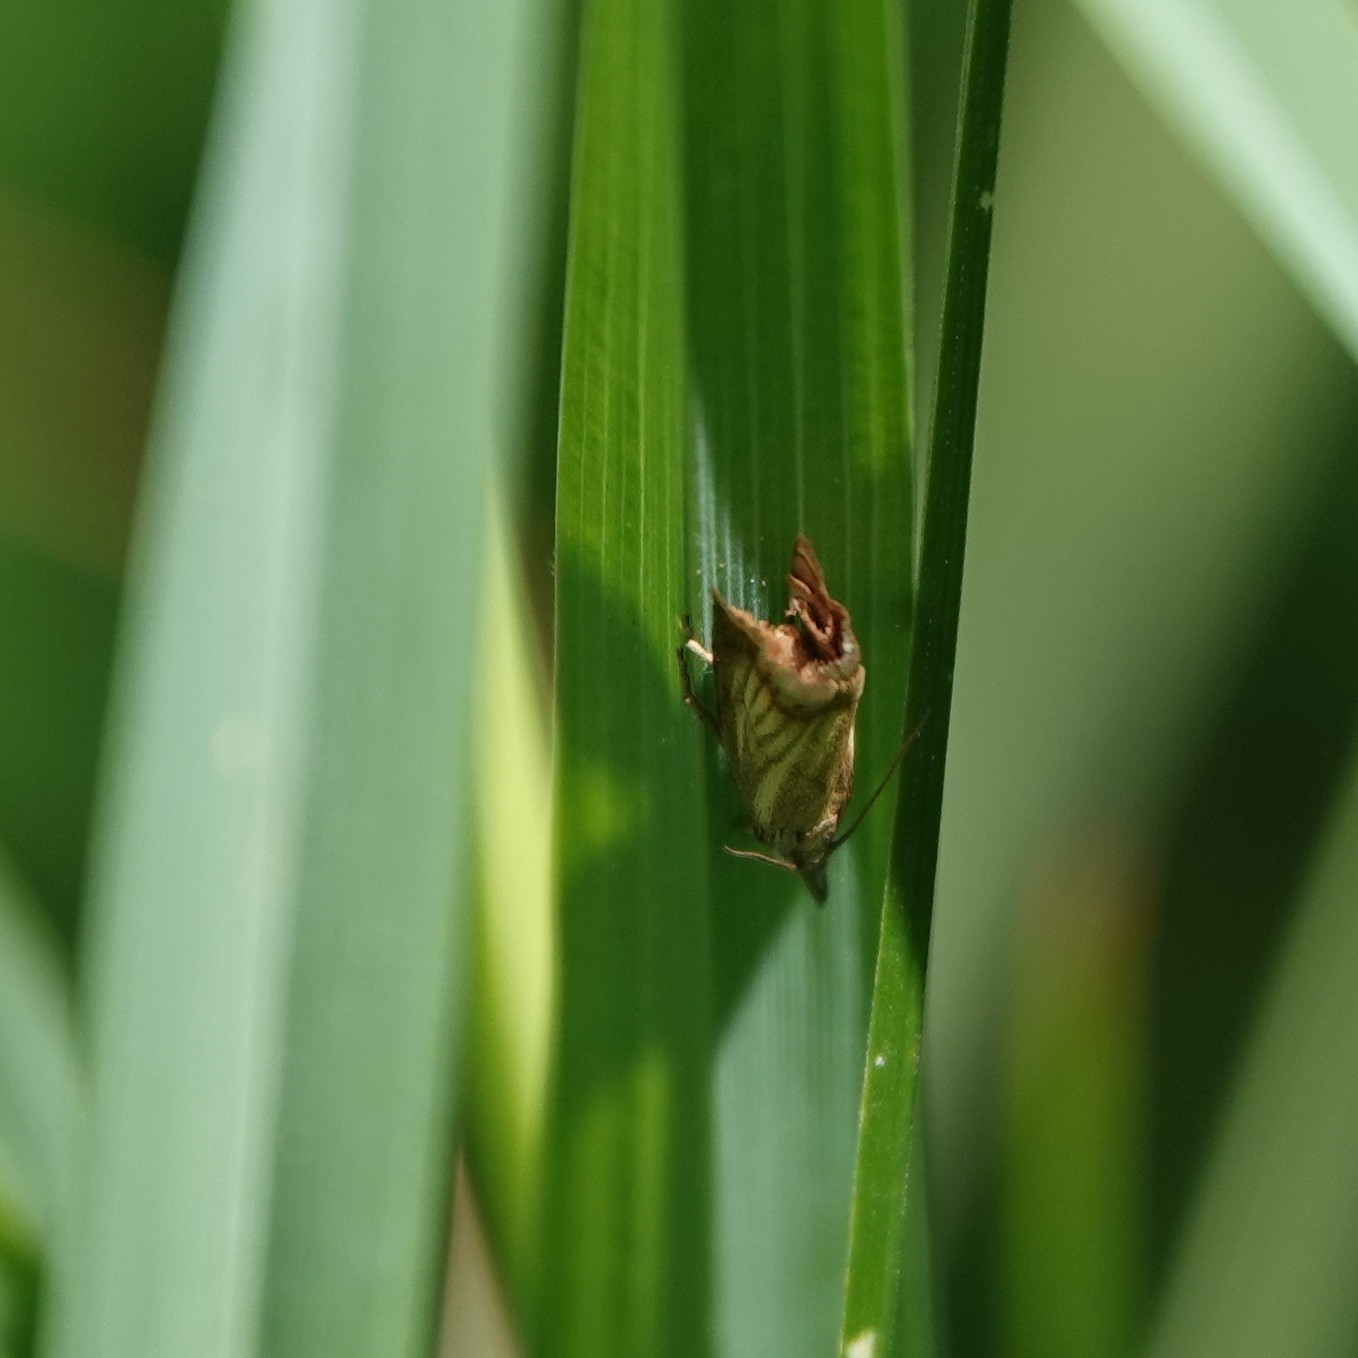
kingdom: Animalia
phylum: Arthropoda
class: Insecta
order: Lepidoptera
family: Crambidae
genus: Chrysoteuchia
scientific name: Chrysoteuchia culmella
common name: Garden grass-veneer
